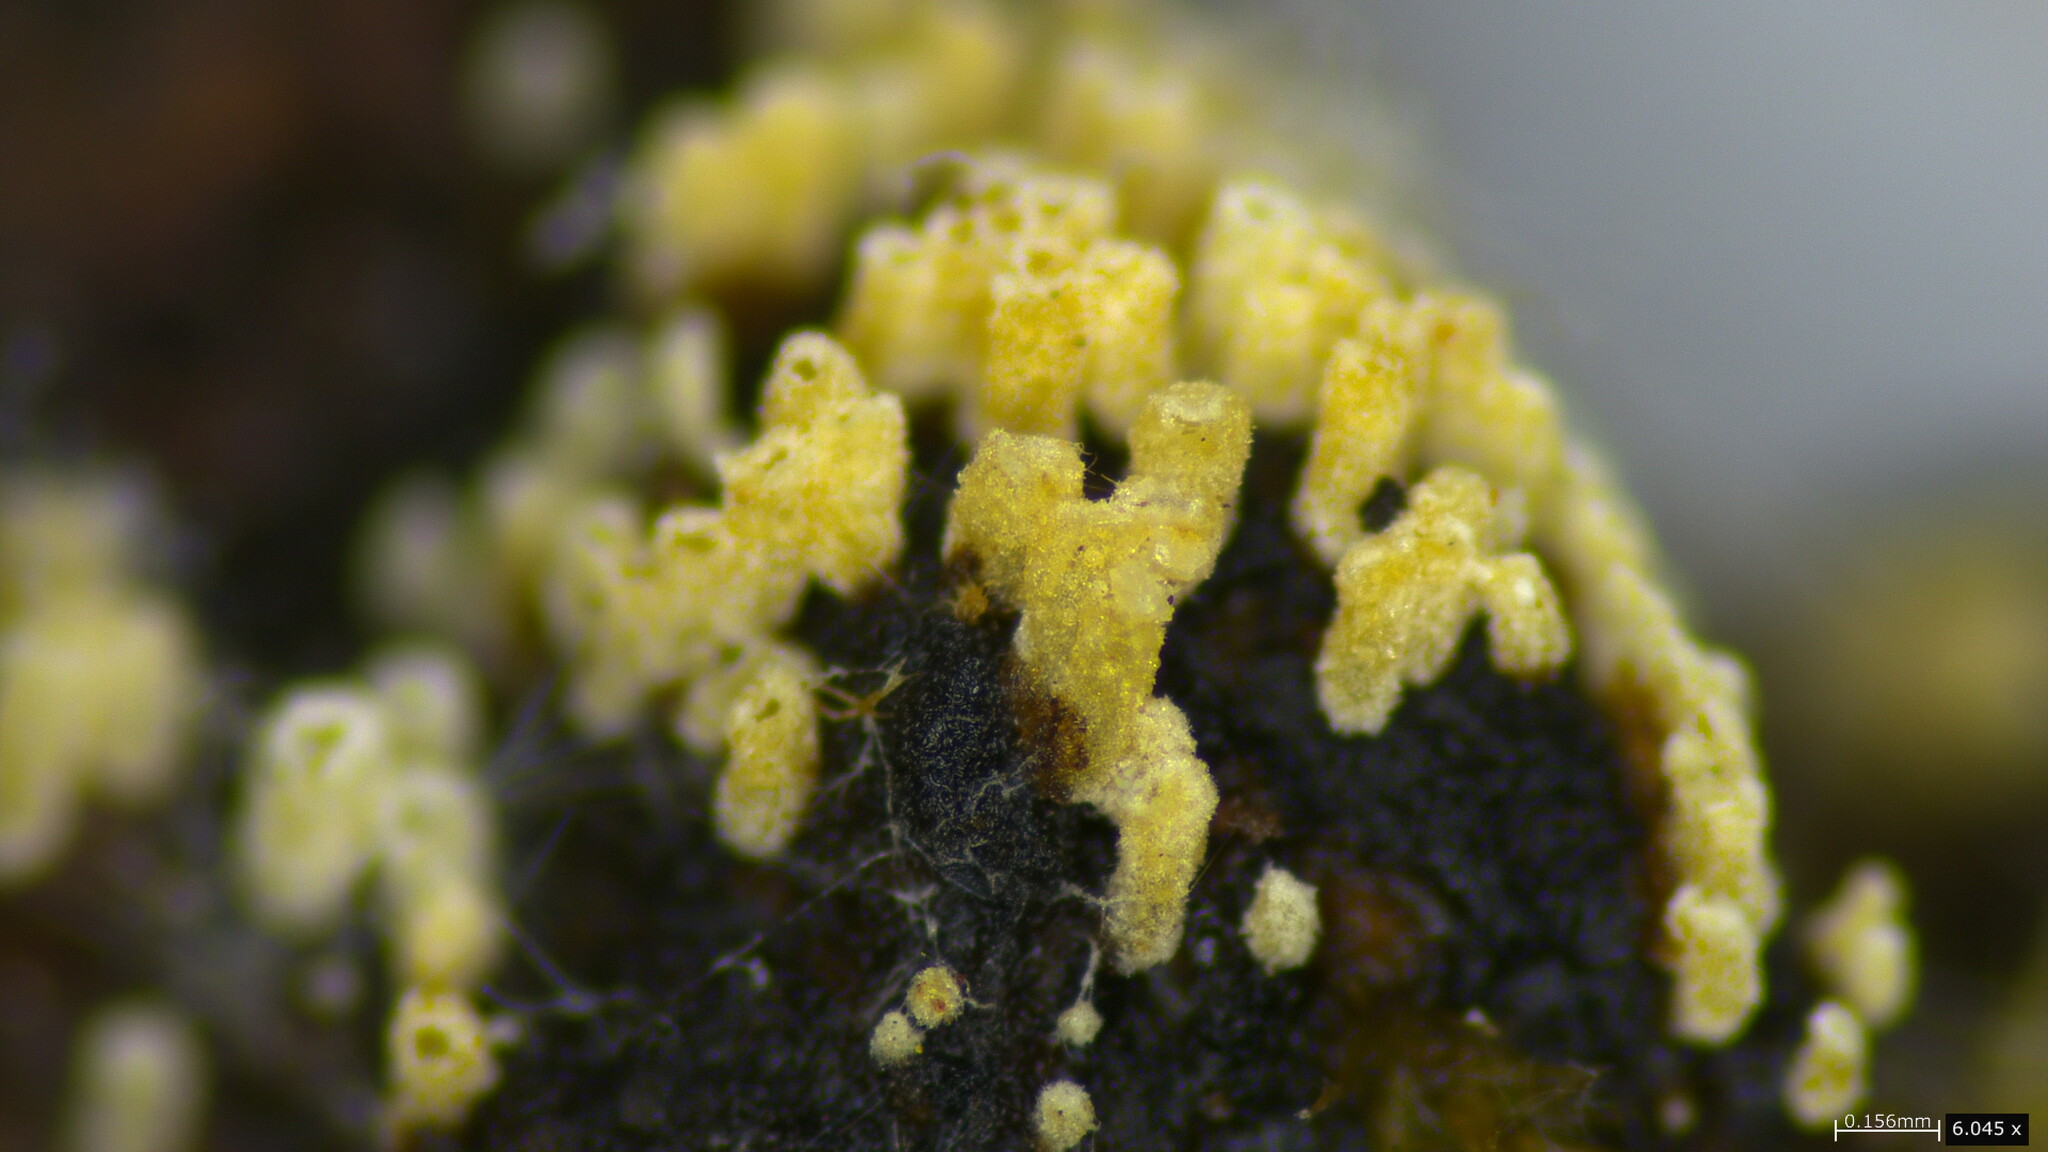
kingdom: Fungi
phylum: Basidiomycota
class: Agaricomycetes
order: Agaricales
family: Marasmiaceae
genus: Henningsomyces
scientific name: Henningsomyces candidus
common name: White tubelet
